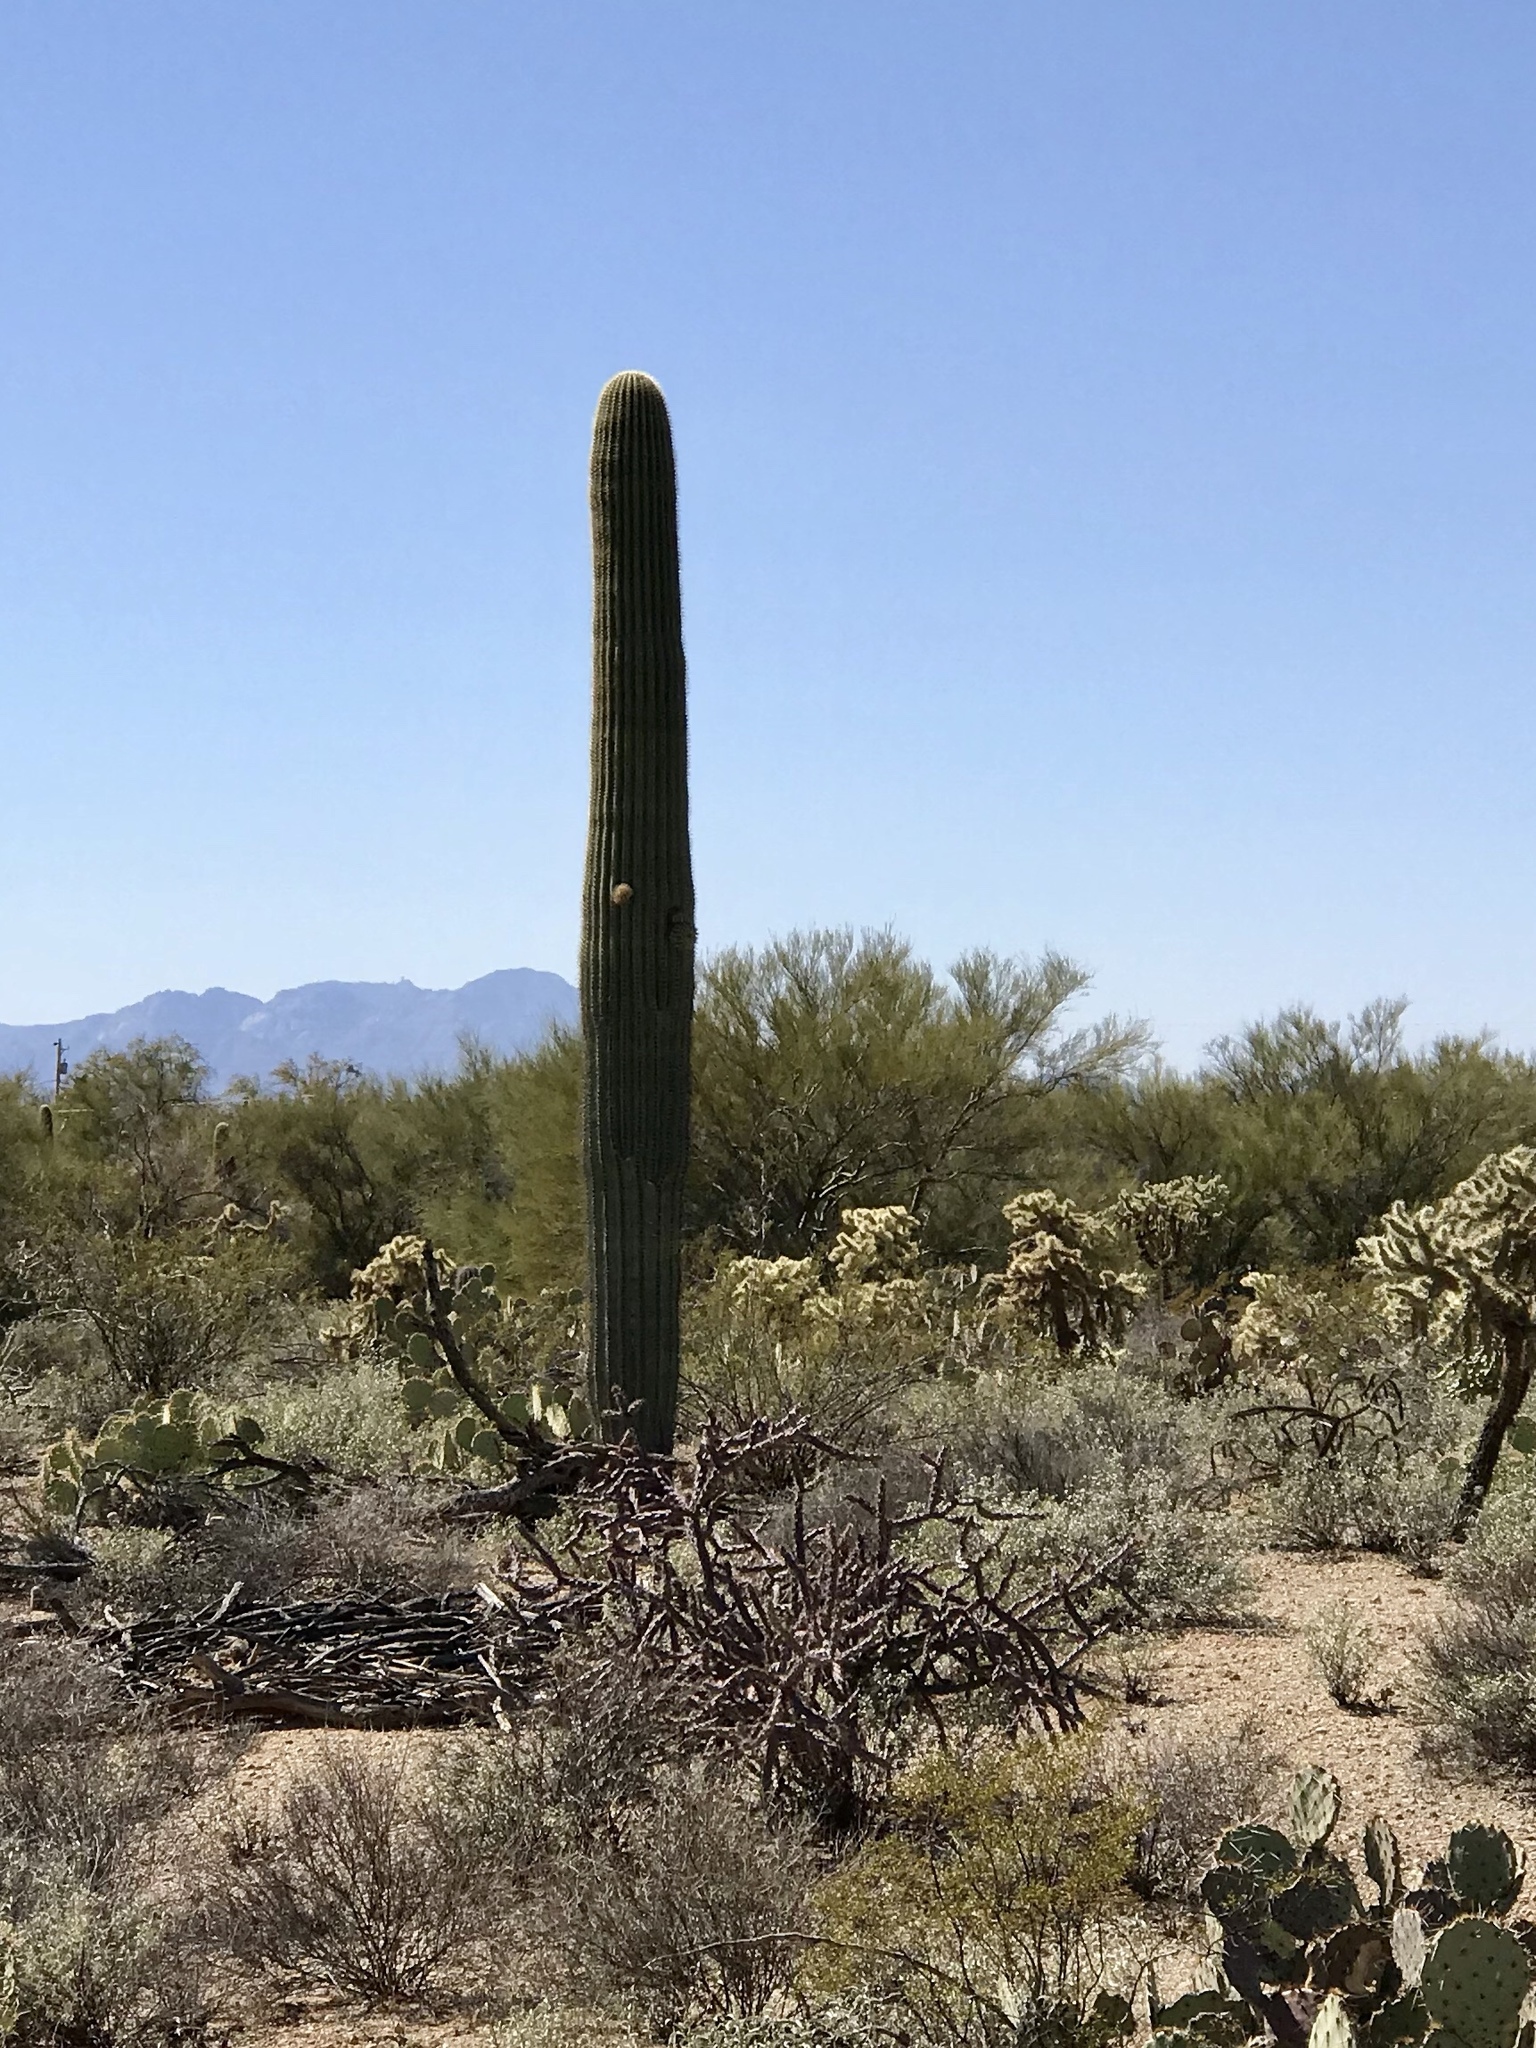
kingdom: Plantae
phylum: Tracheophyta
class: Magnoliopsida
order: Caryophyllales
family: Cactaceae
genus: Carnegiea
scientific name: Carnegiea gigantea
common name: Saguaro
